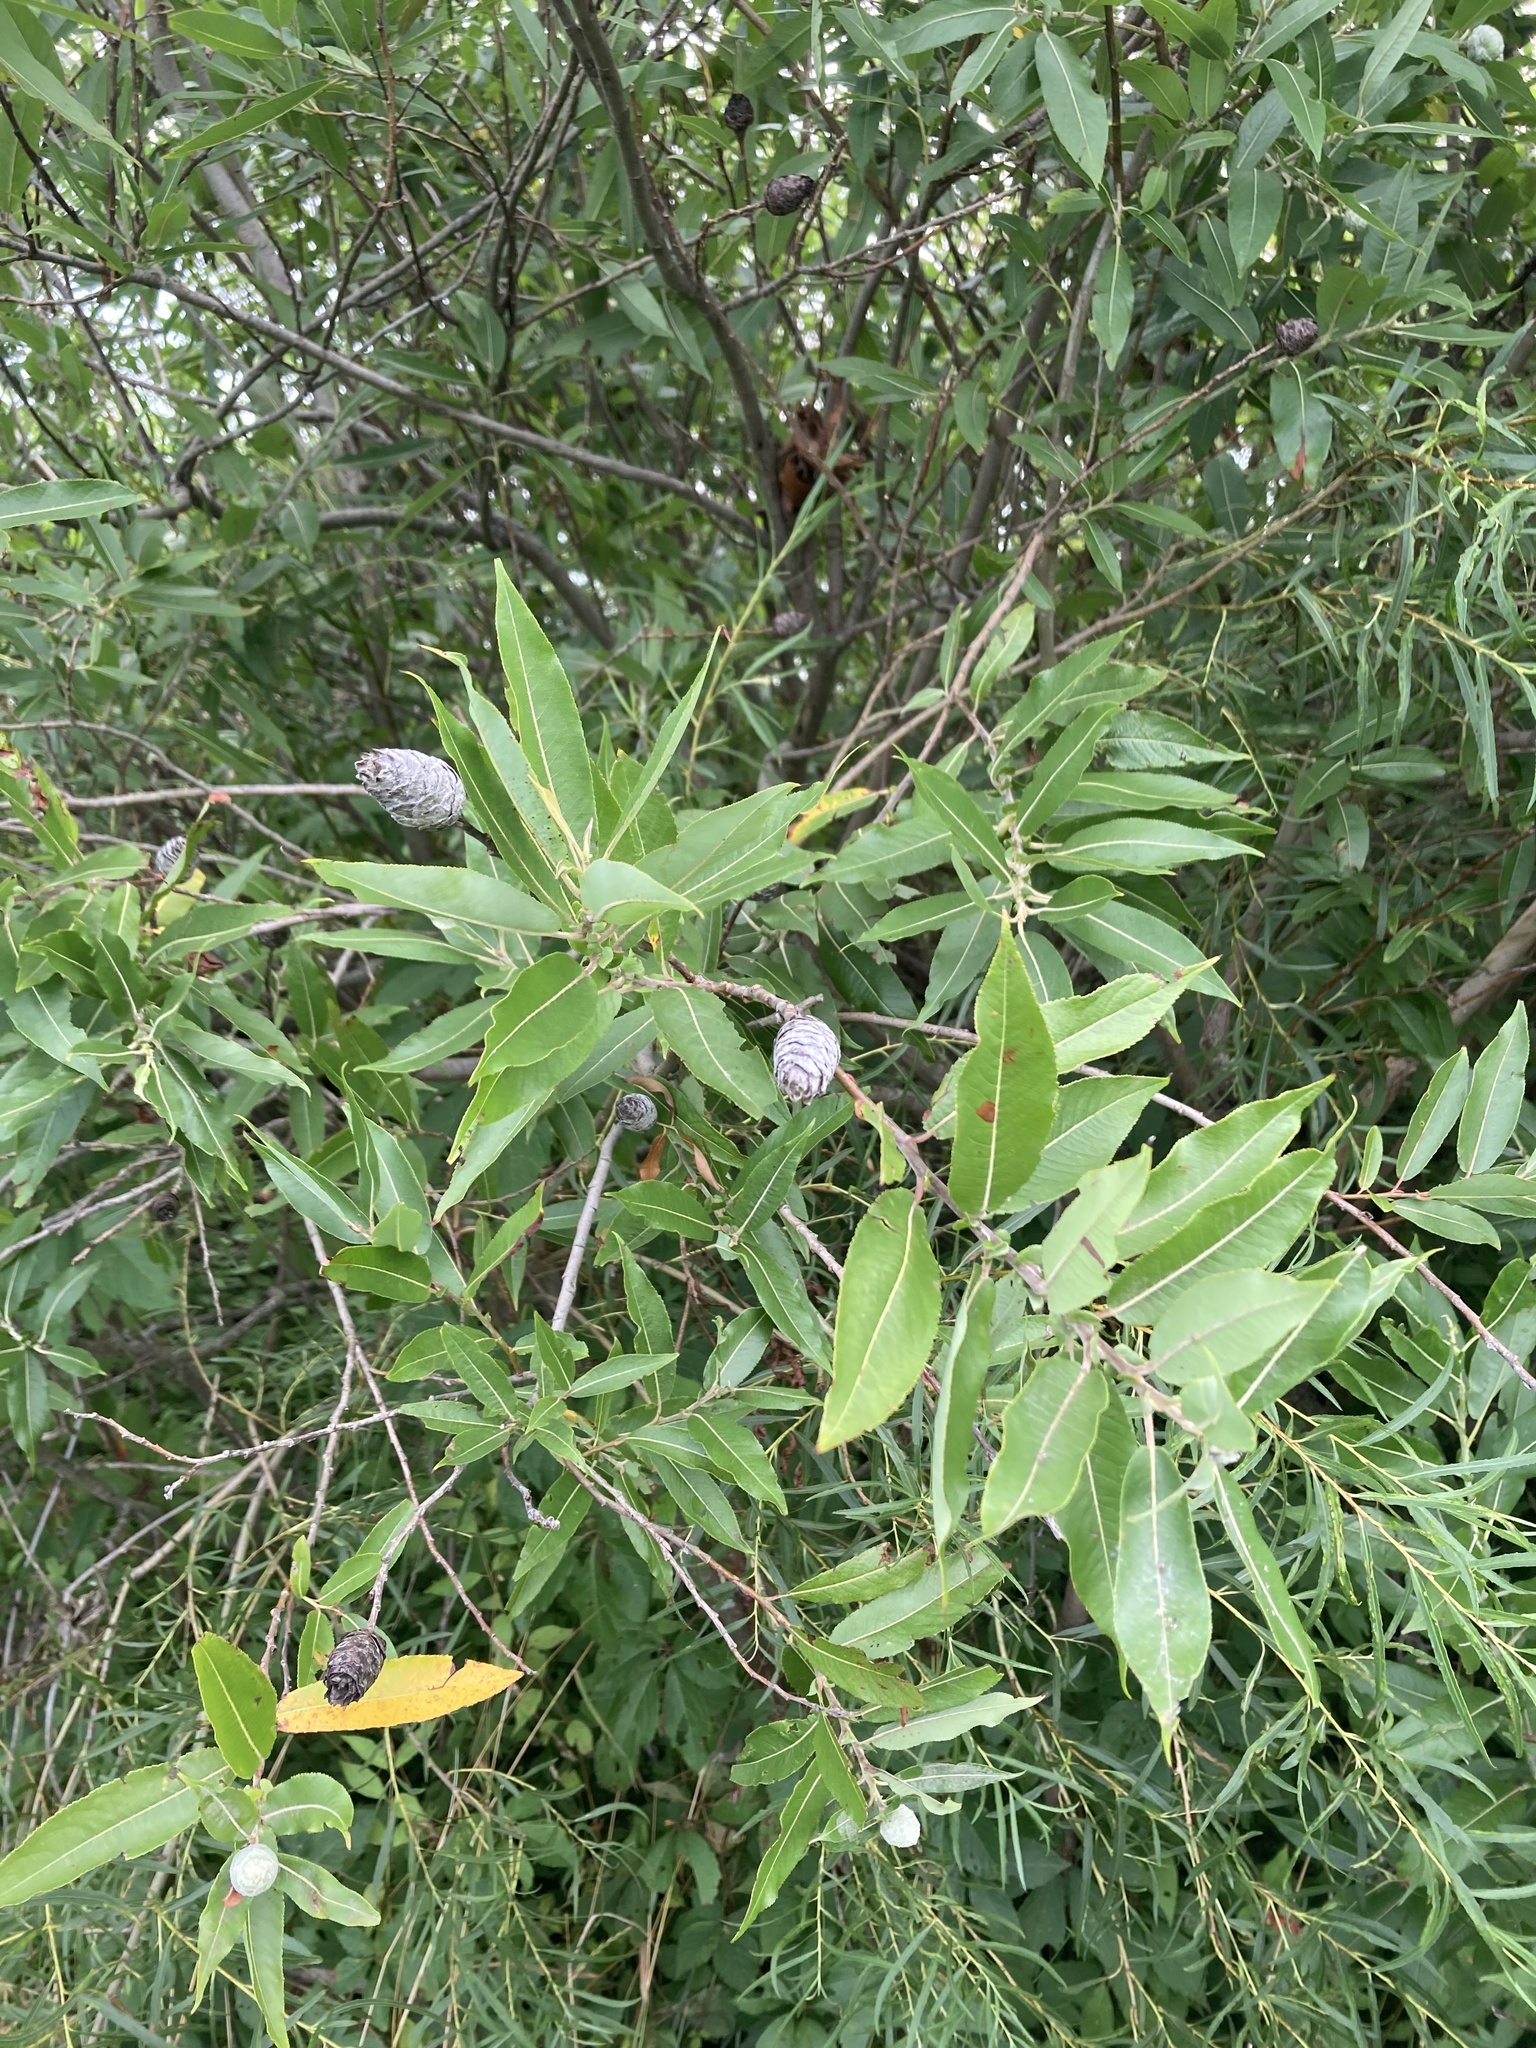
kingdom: Animalia
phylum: Arthropoda
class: Insecta
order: Diptera
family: Cecidomyiidae
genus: Rabdophaga
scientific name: Rabdophaga strobiloides
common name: Willow pinecone gall midge
